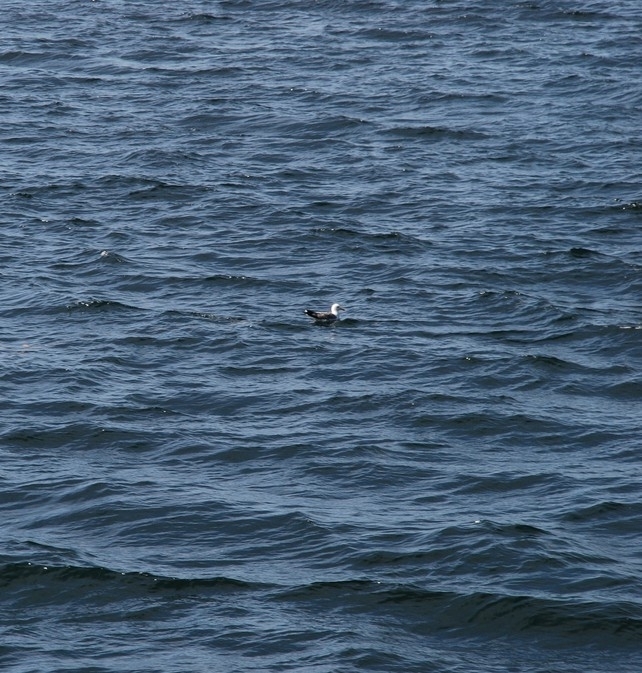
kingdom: Animalia
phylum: Chordata
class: Aves
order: Charadriiformes
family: Laridae
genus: Larus
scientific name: Larus vegae
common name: Vega gull
